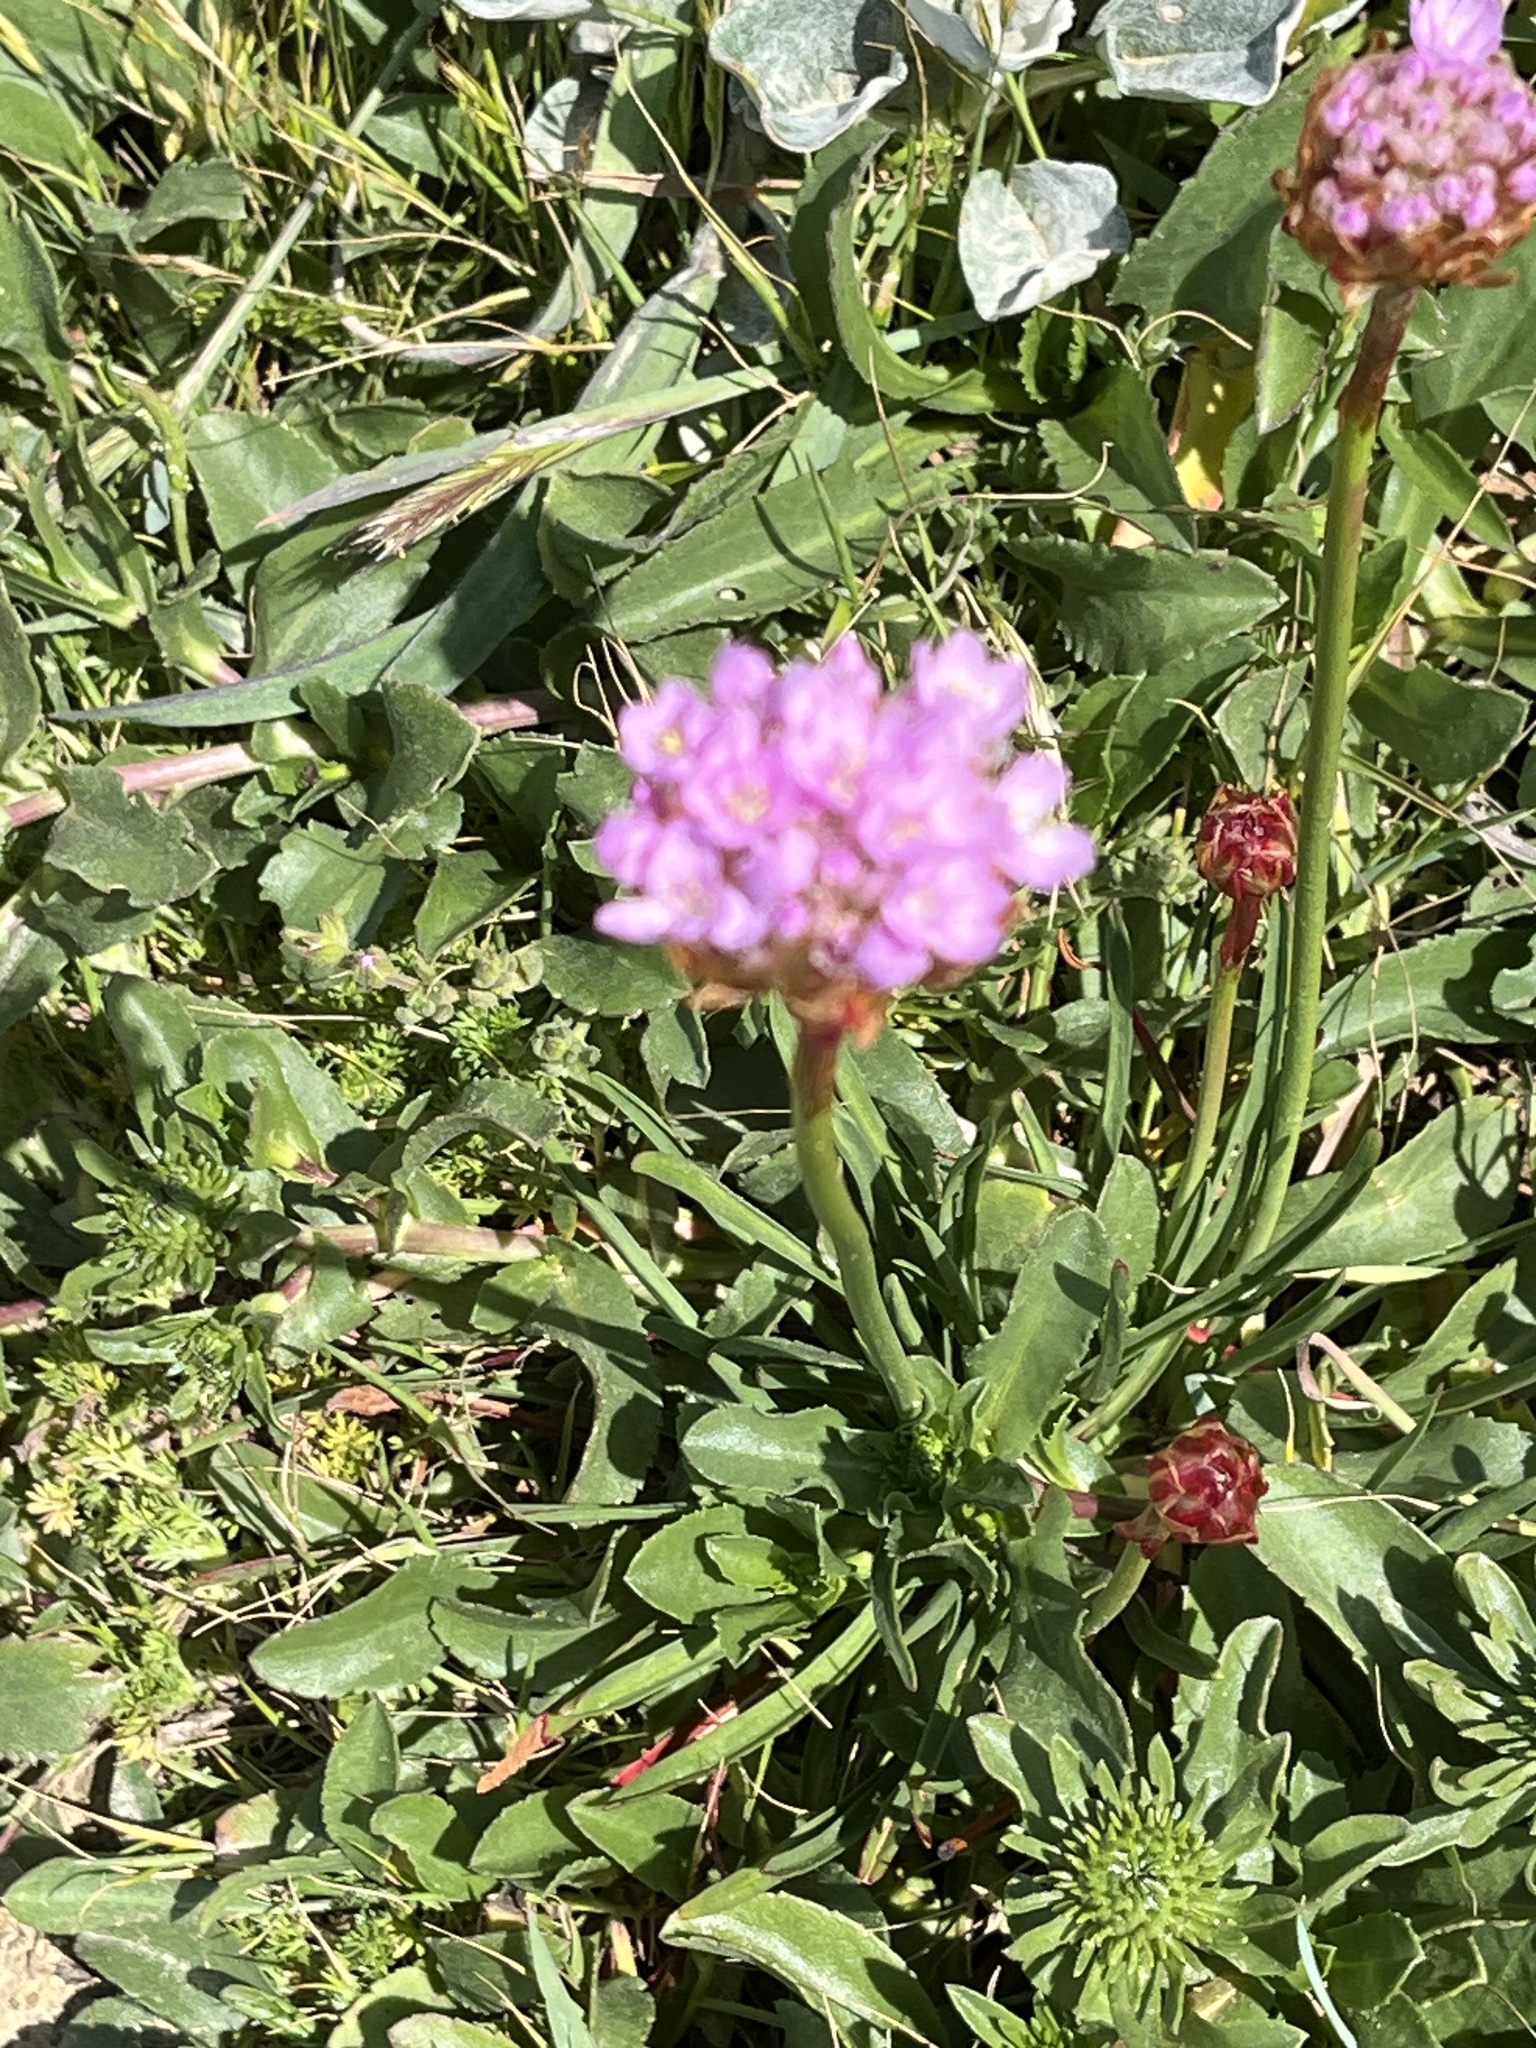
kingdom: Plantae
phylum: Tracheophyta
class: Magnoliopsida
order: Caryophyllales
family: Plumbaginaceae
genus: Armeria
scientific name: Armeria maritima
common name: Thrift
